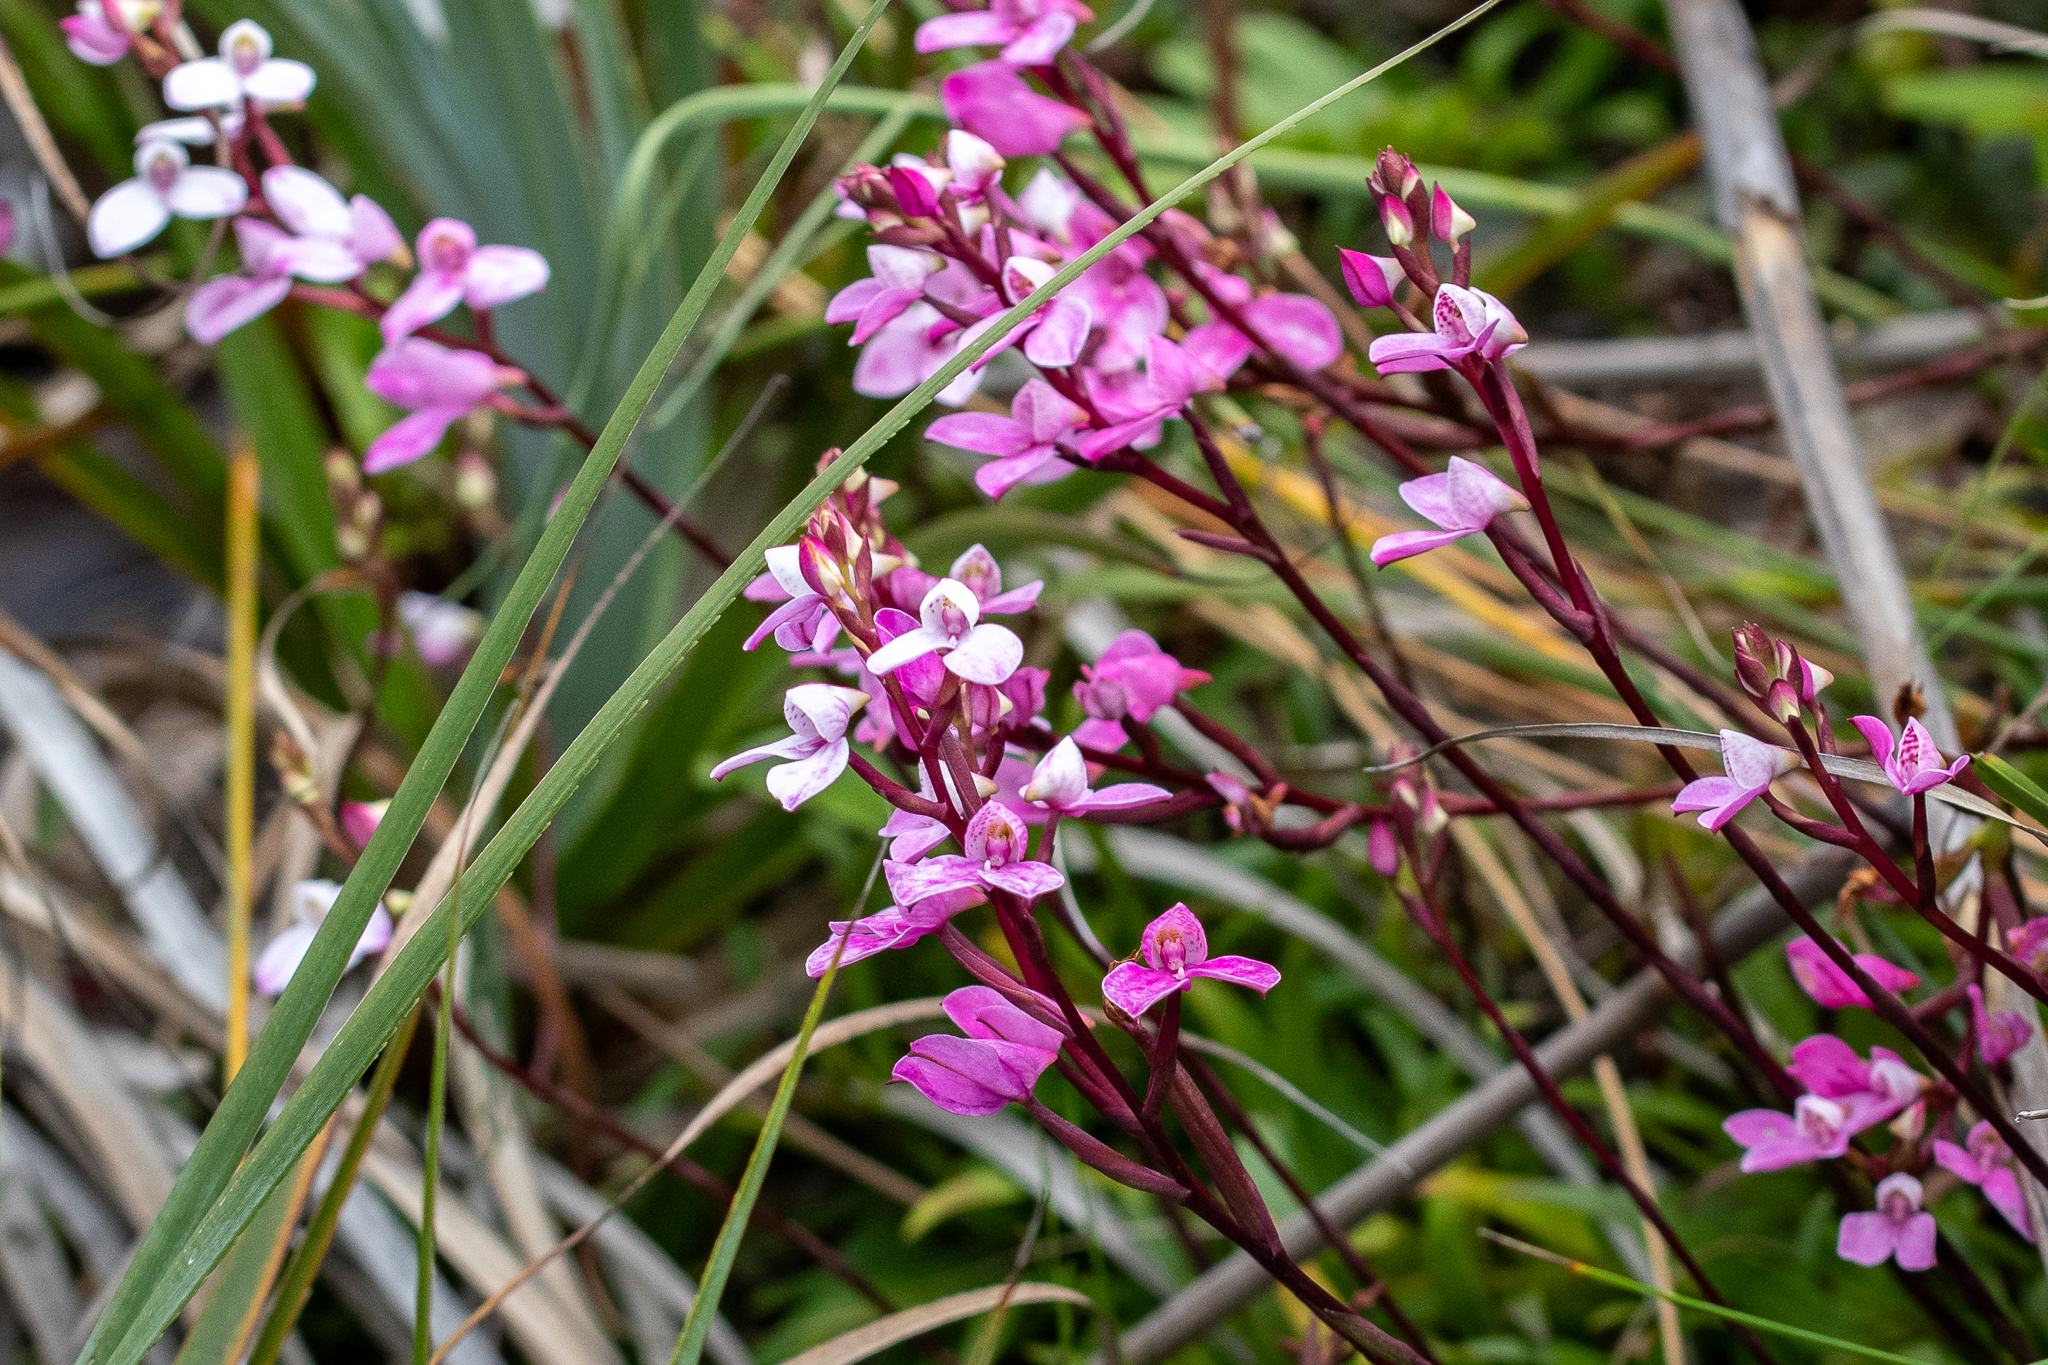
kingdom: Plantae
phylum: Tracheophyta
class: Liliopsida
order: Asparagales
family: Orchidaceae
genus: Disa
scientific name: Disa tripetaloides
